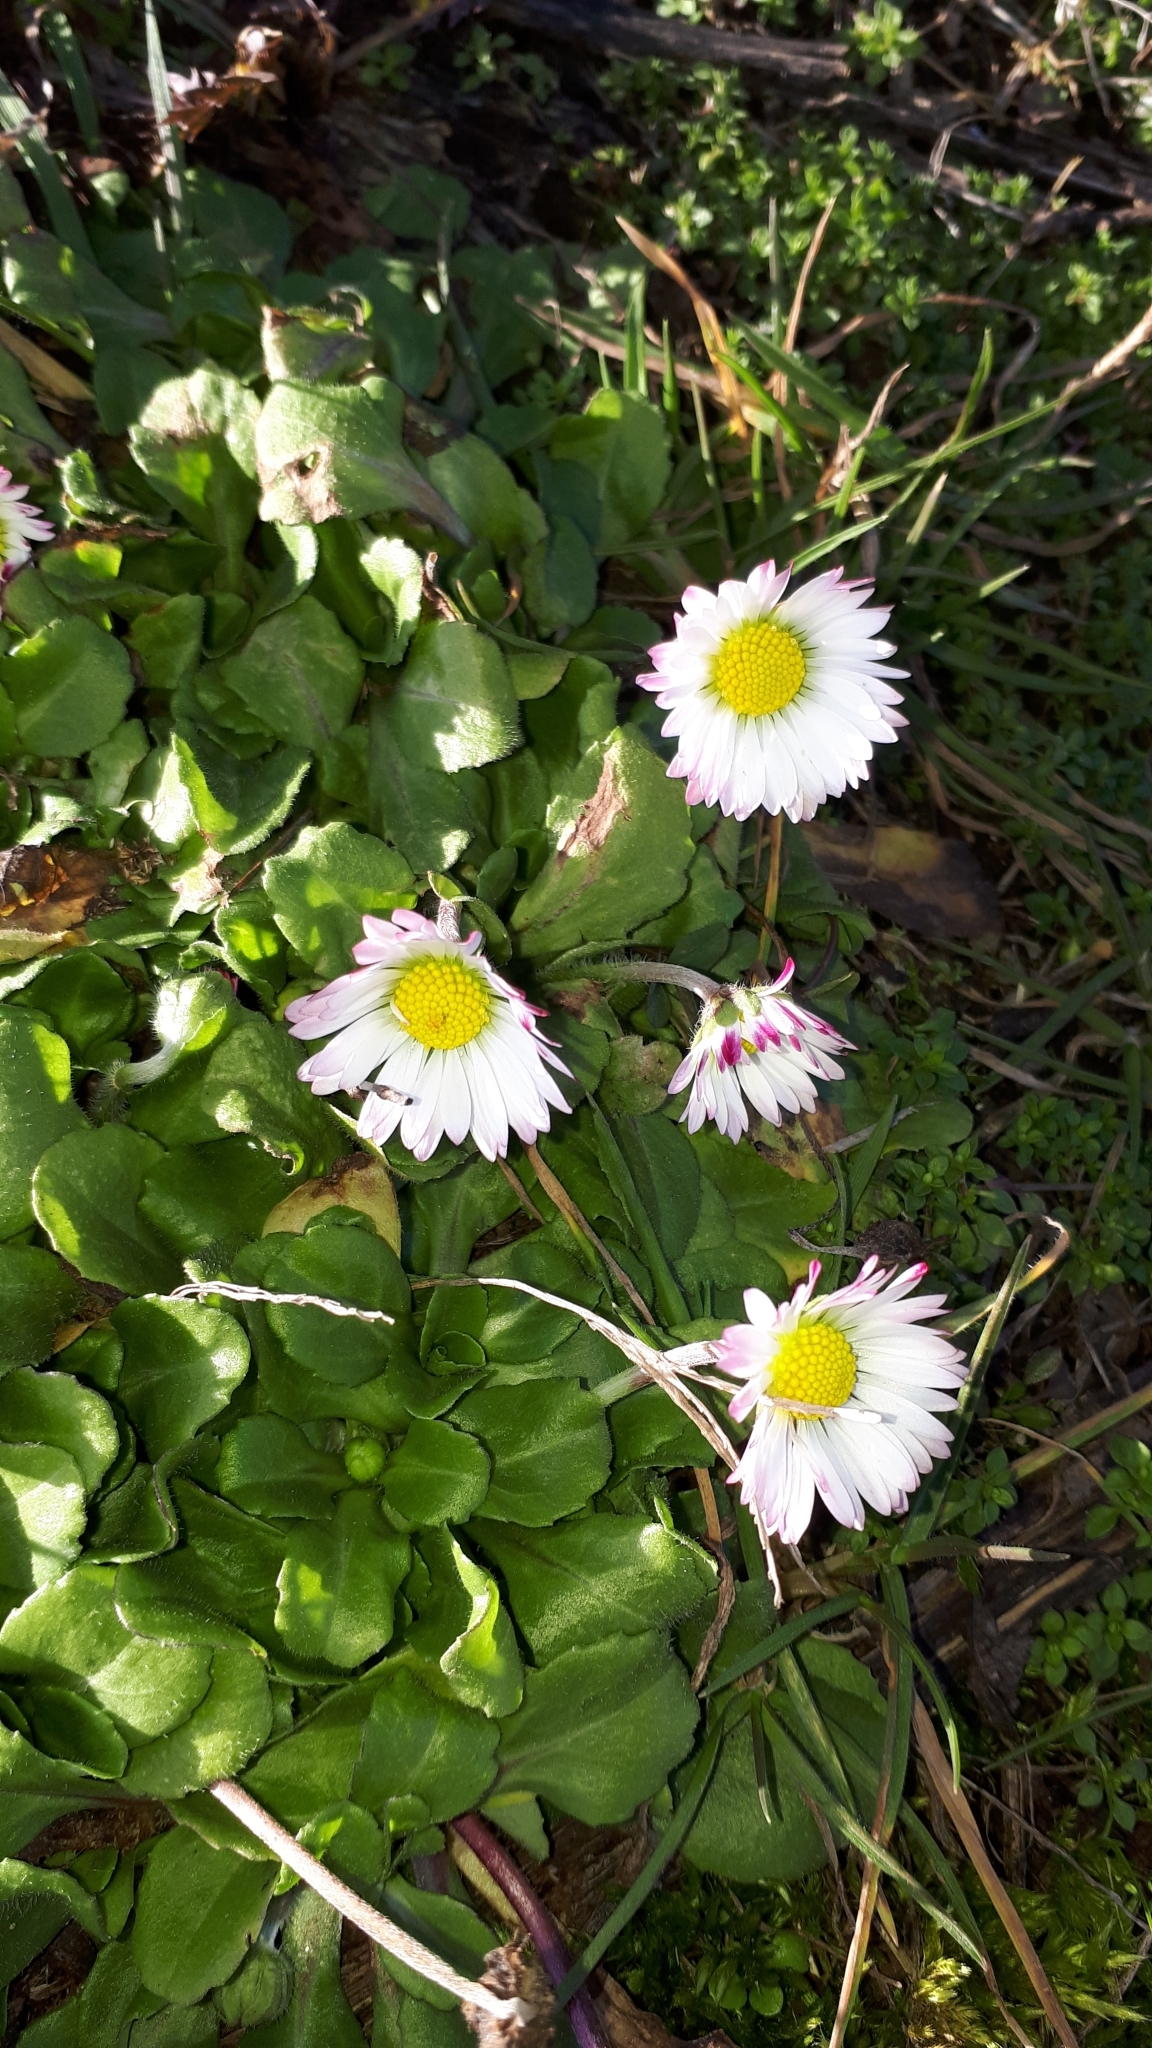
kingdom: Plantae
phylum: Tracheophyta
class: Magnoliopsida
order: Asterales
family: Asteraceae
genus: Bellis
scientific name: Bellis perennis
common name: Lawndaisy
